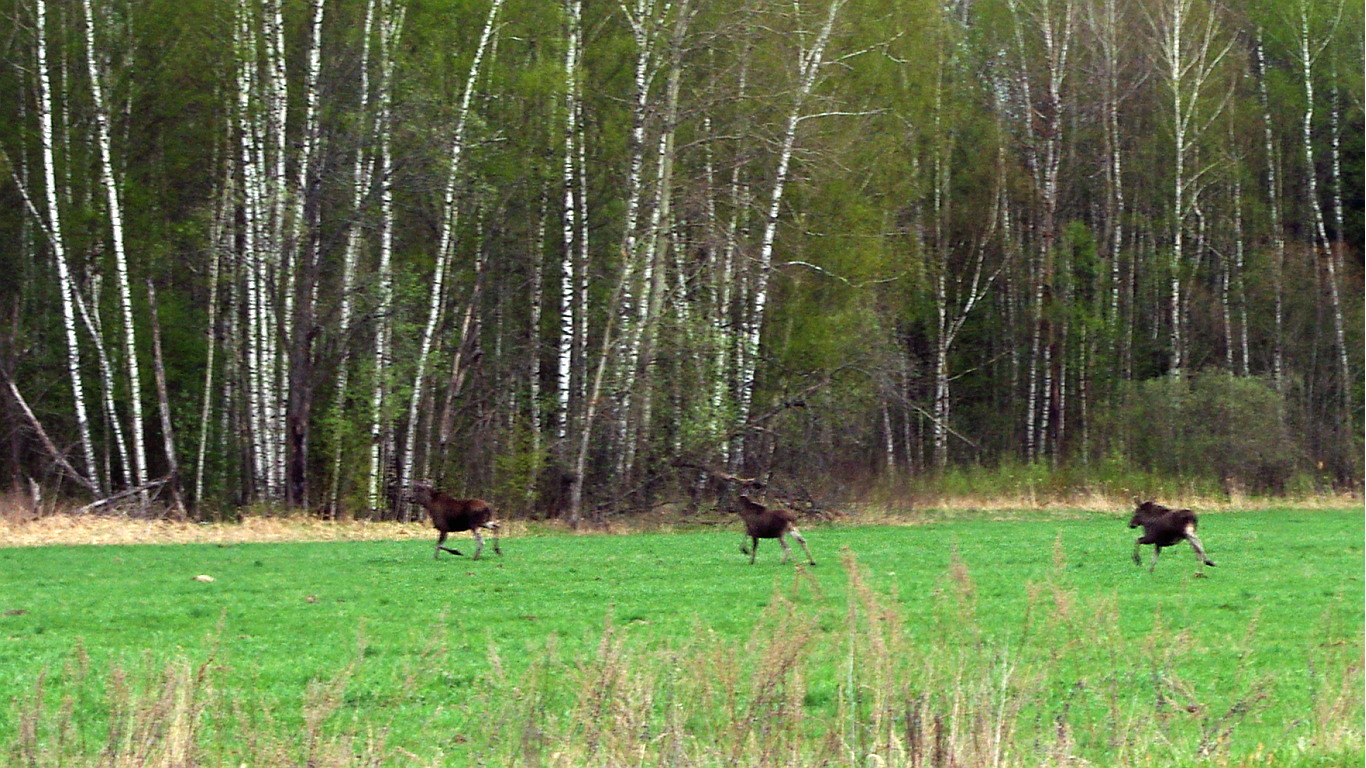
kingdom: Animalia
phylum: Chordata
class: Mammalia
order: Artiodactyla
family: Cervidae
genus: Alces
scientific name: Alces alces
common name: Moose
